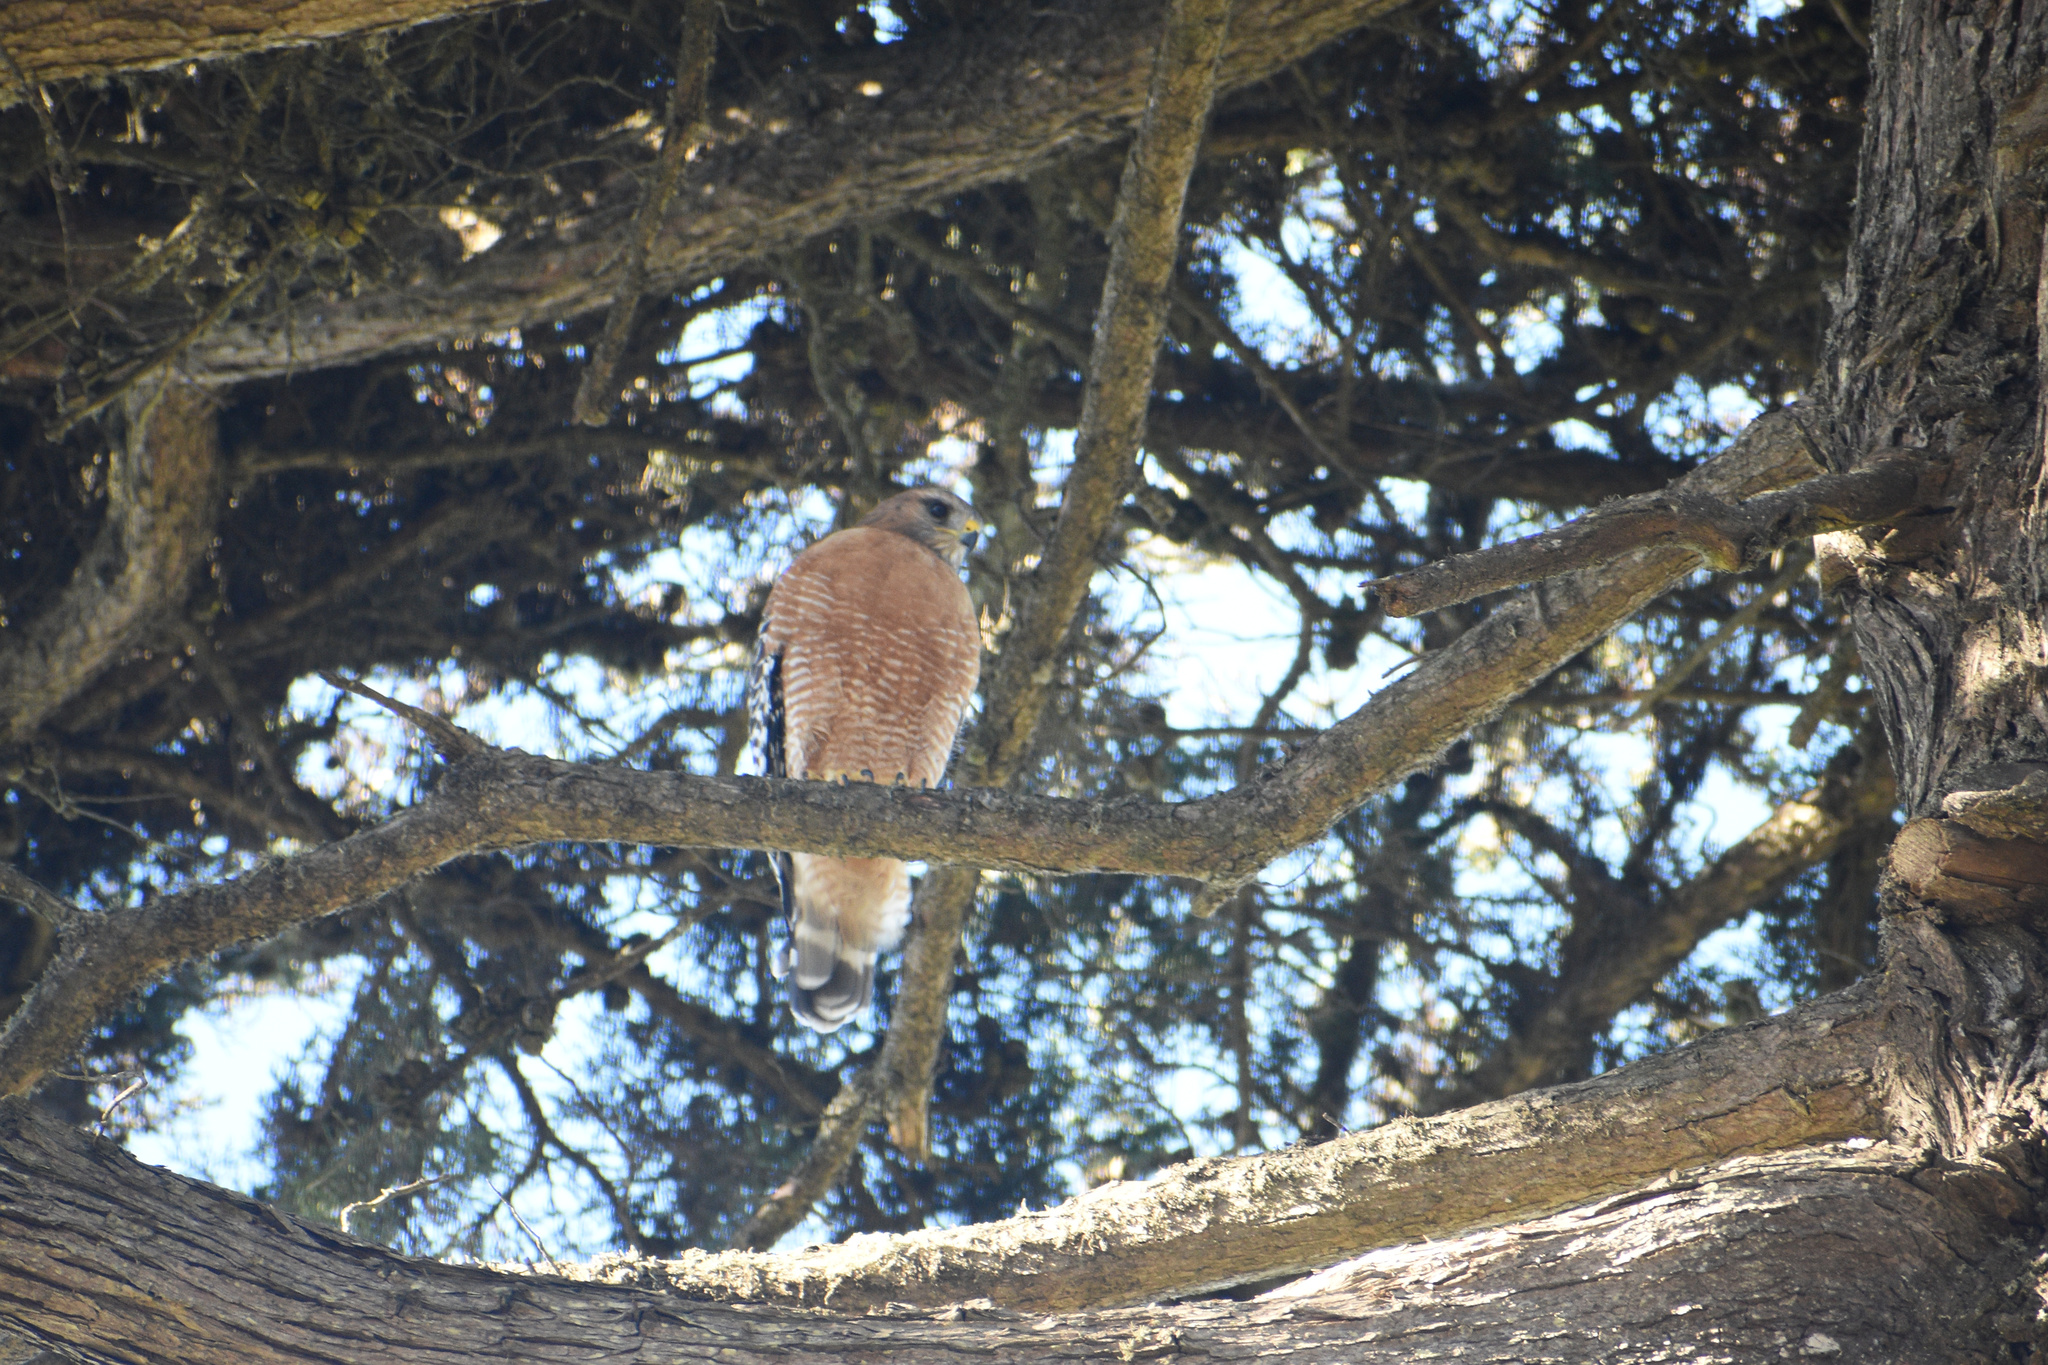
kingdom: Animalia
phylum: Chordata
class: Aves
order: Accipitriformes
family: Accipitridae
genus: Buteo
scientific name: Buteo lineatus
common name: Red-shouldered hawk
